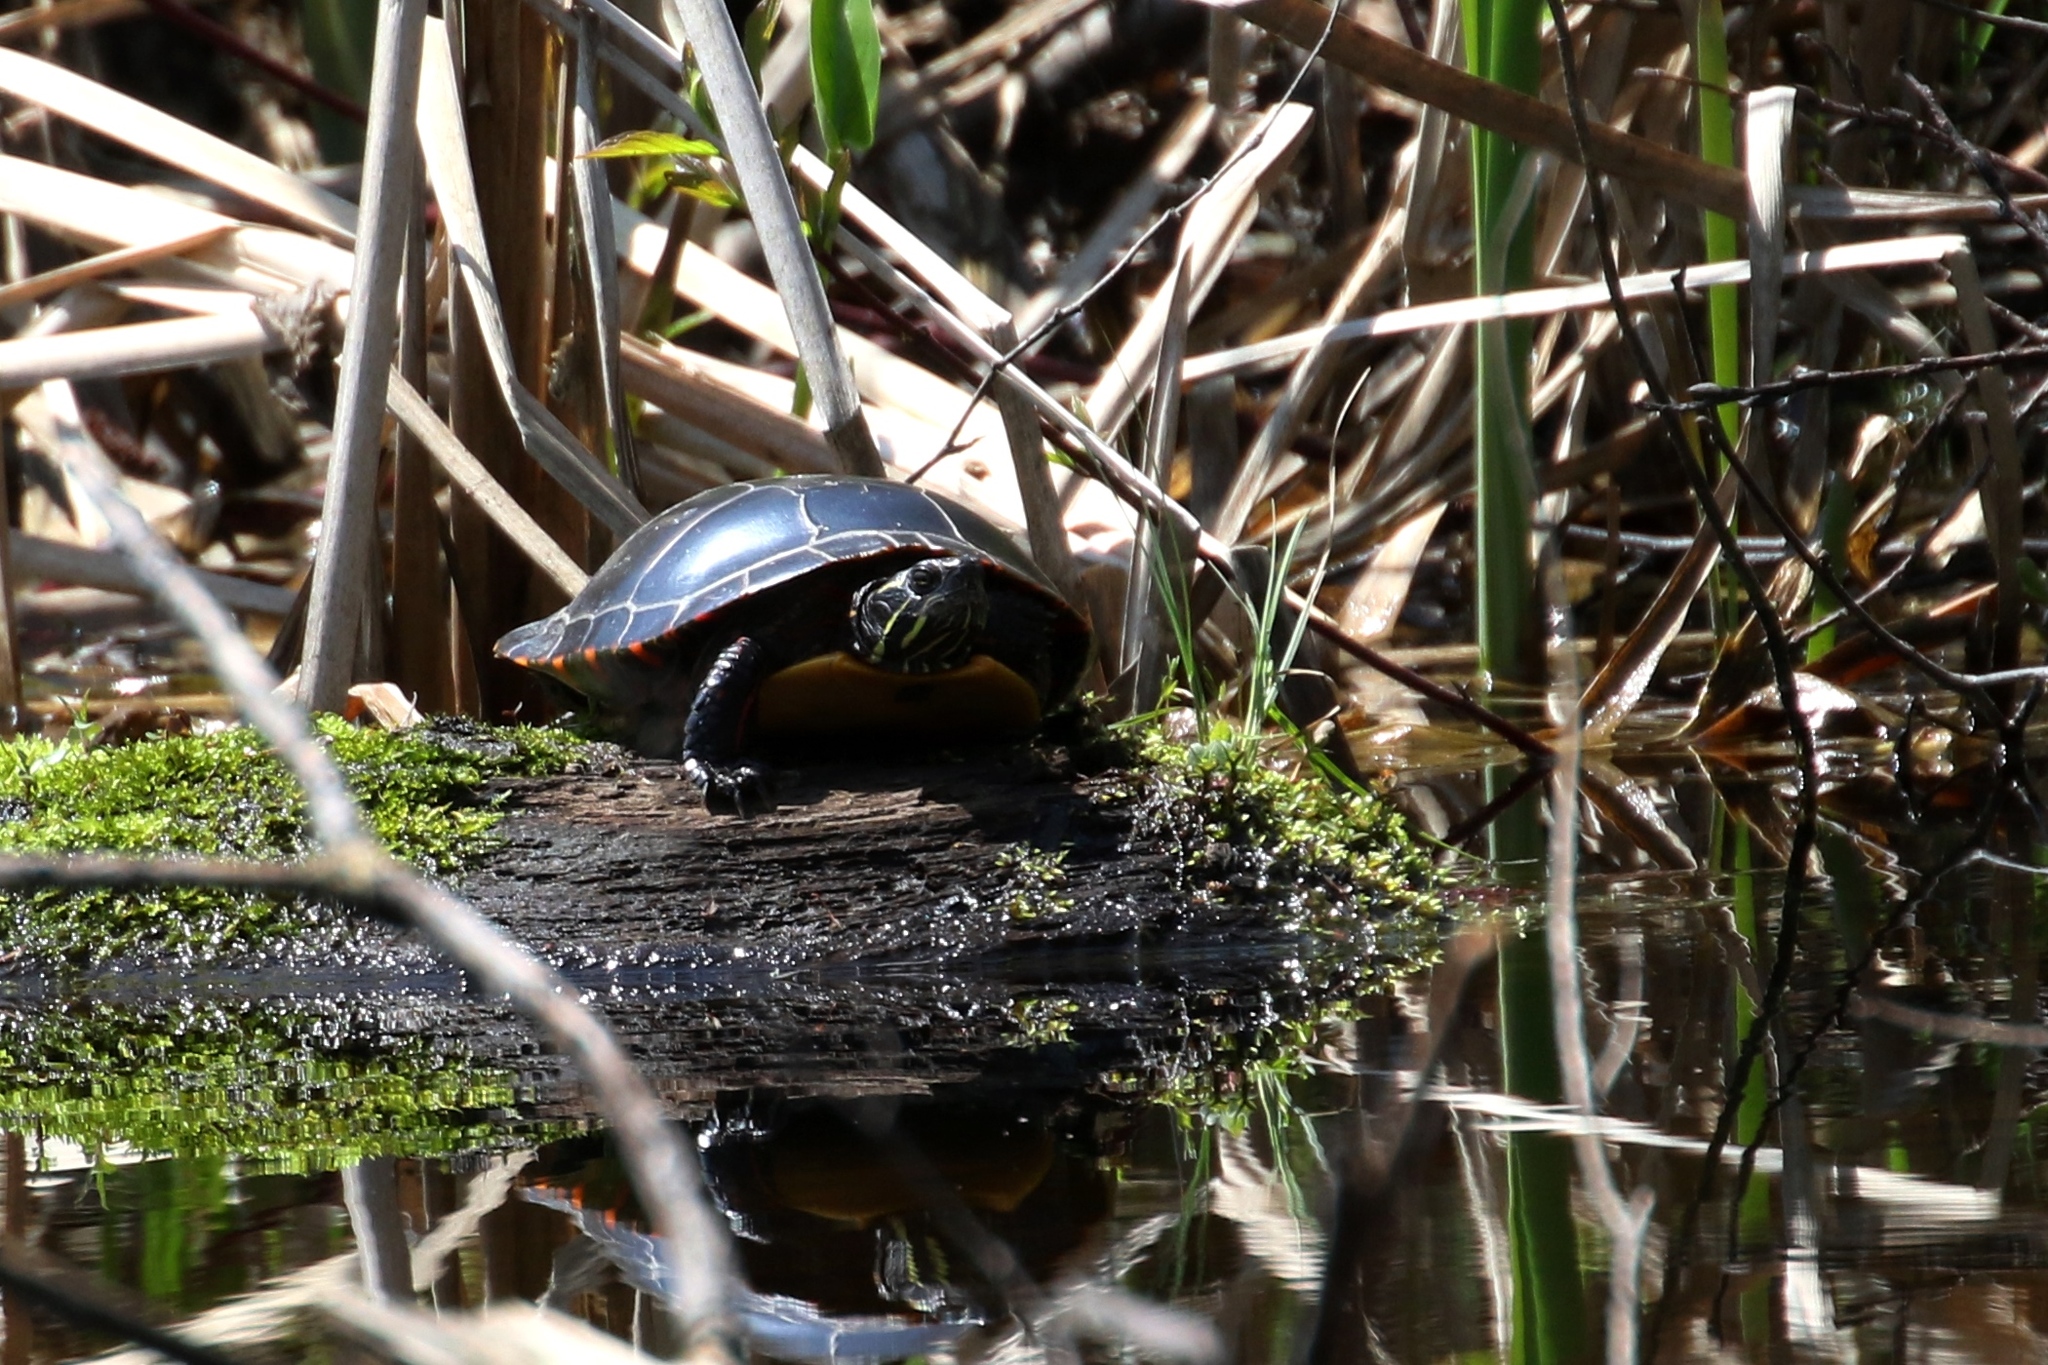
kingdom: Animalia
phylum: Chordata
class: Testudines
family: Emydidae
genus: Chrysemys
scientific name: Chrysemys picta
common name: Painted turtle
